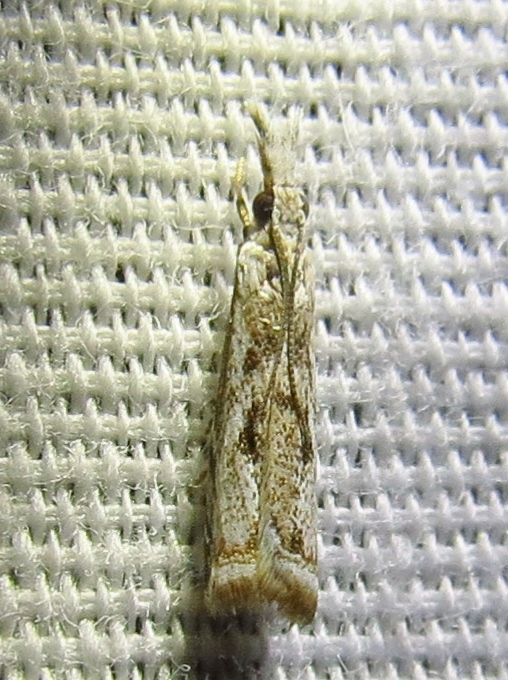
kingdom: Animalia
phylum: Arthropoda
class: Insecta
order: Lepidoptera
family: Crambidae
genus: Microcrambus
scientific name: Microcrambus elegans
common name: Elegant grass-veneer
